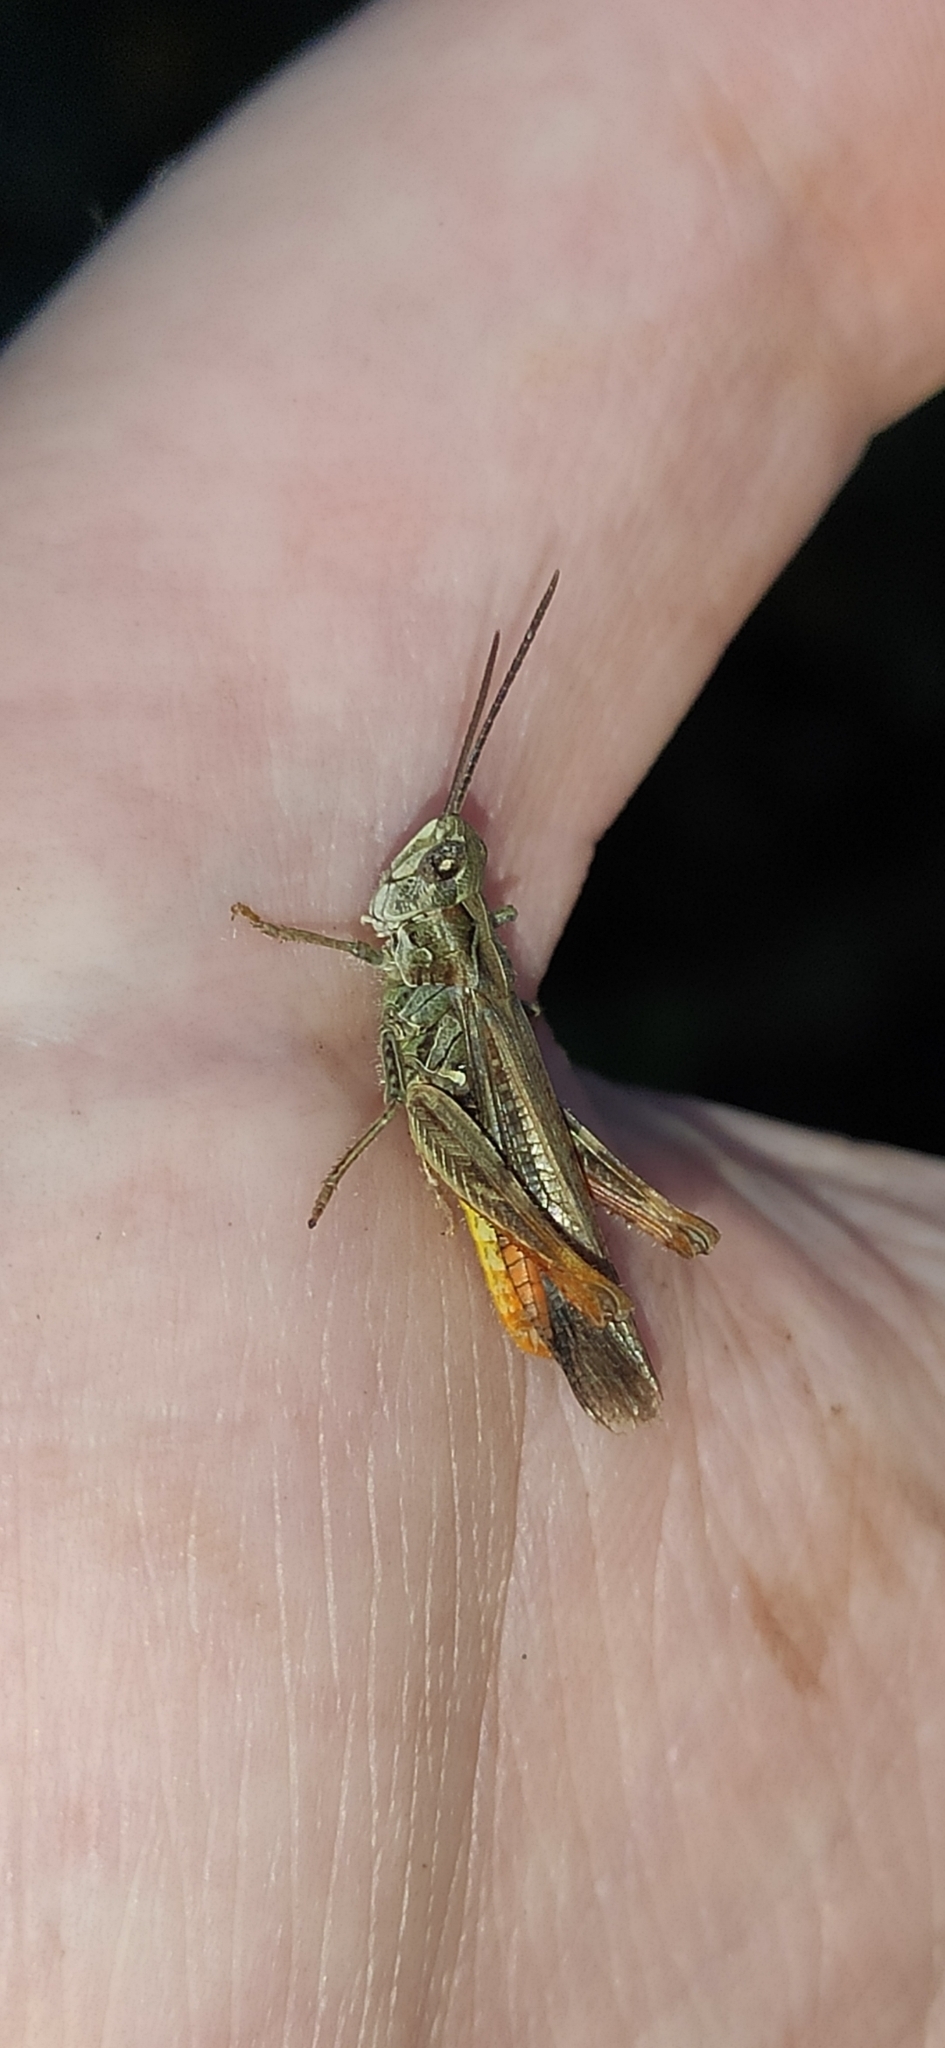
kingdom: Animalia
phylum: Arthropoda
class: Insecta
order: Orthoptera
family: Acrididae
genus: Glyptobothrus
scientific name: Glyptobothrus
